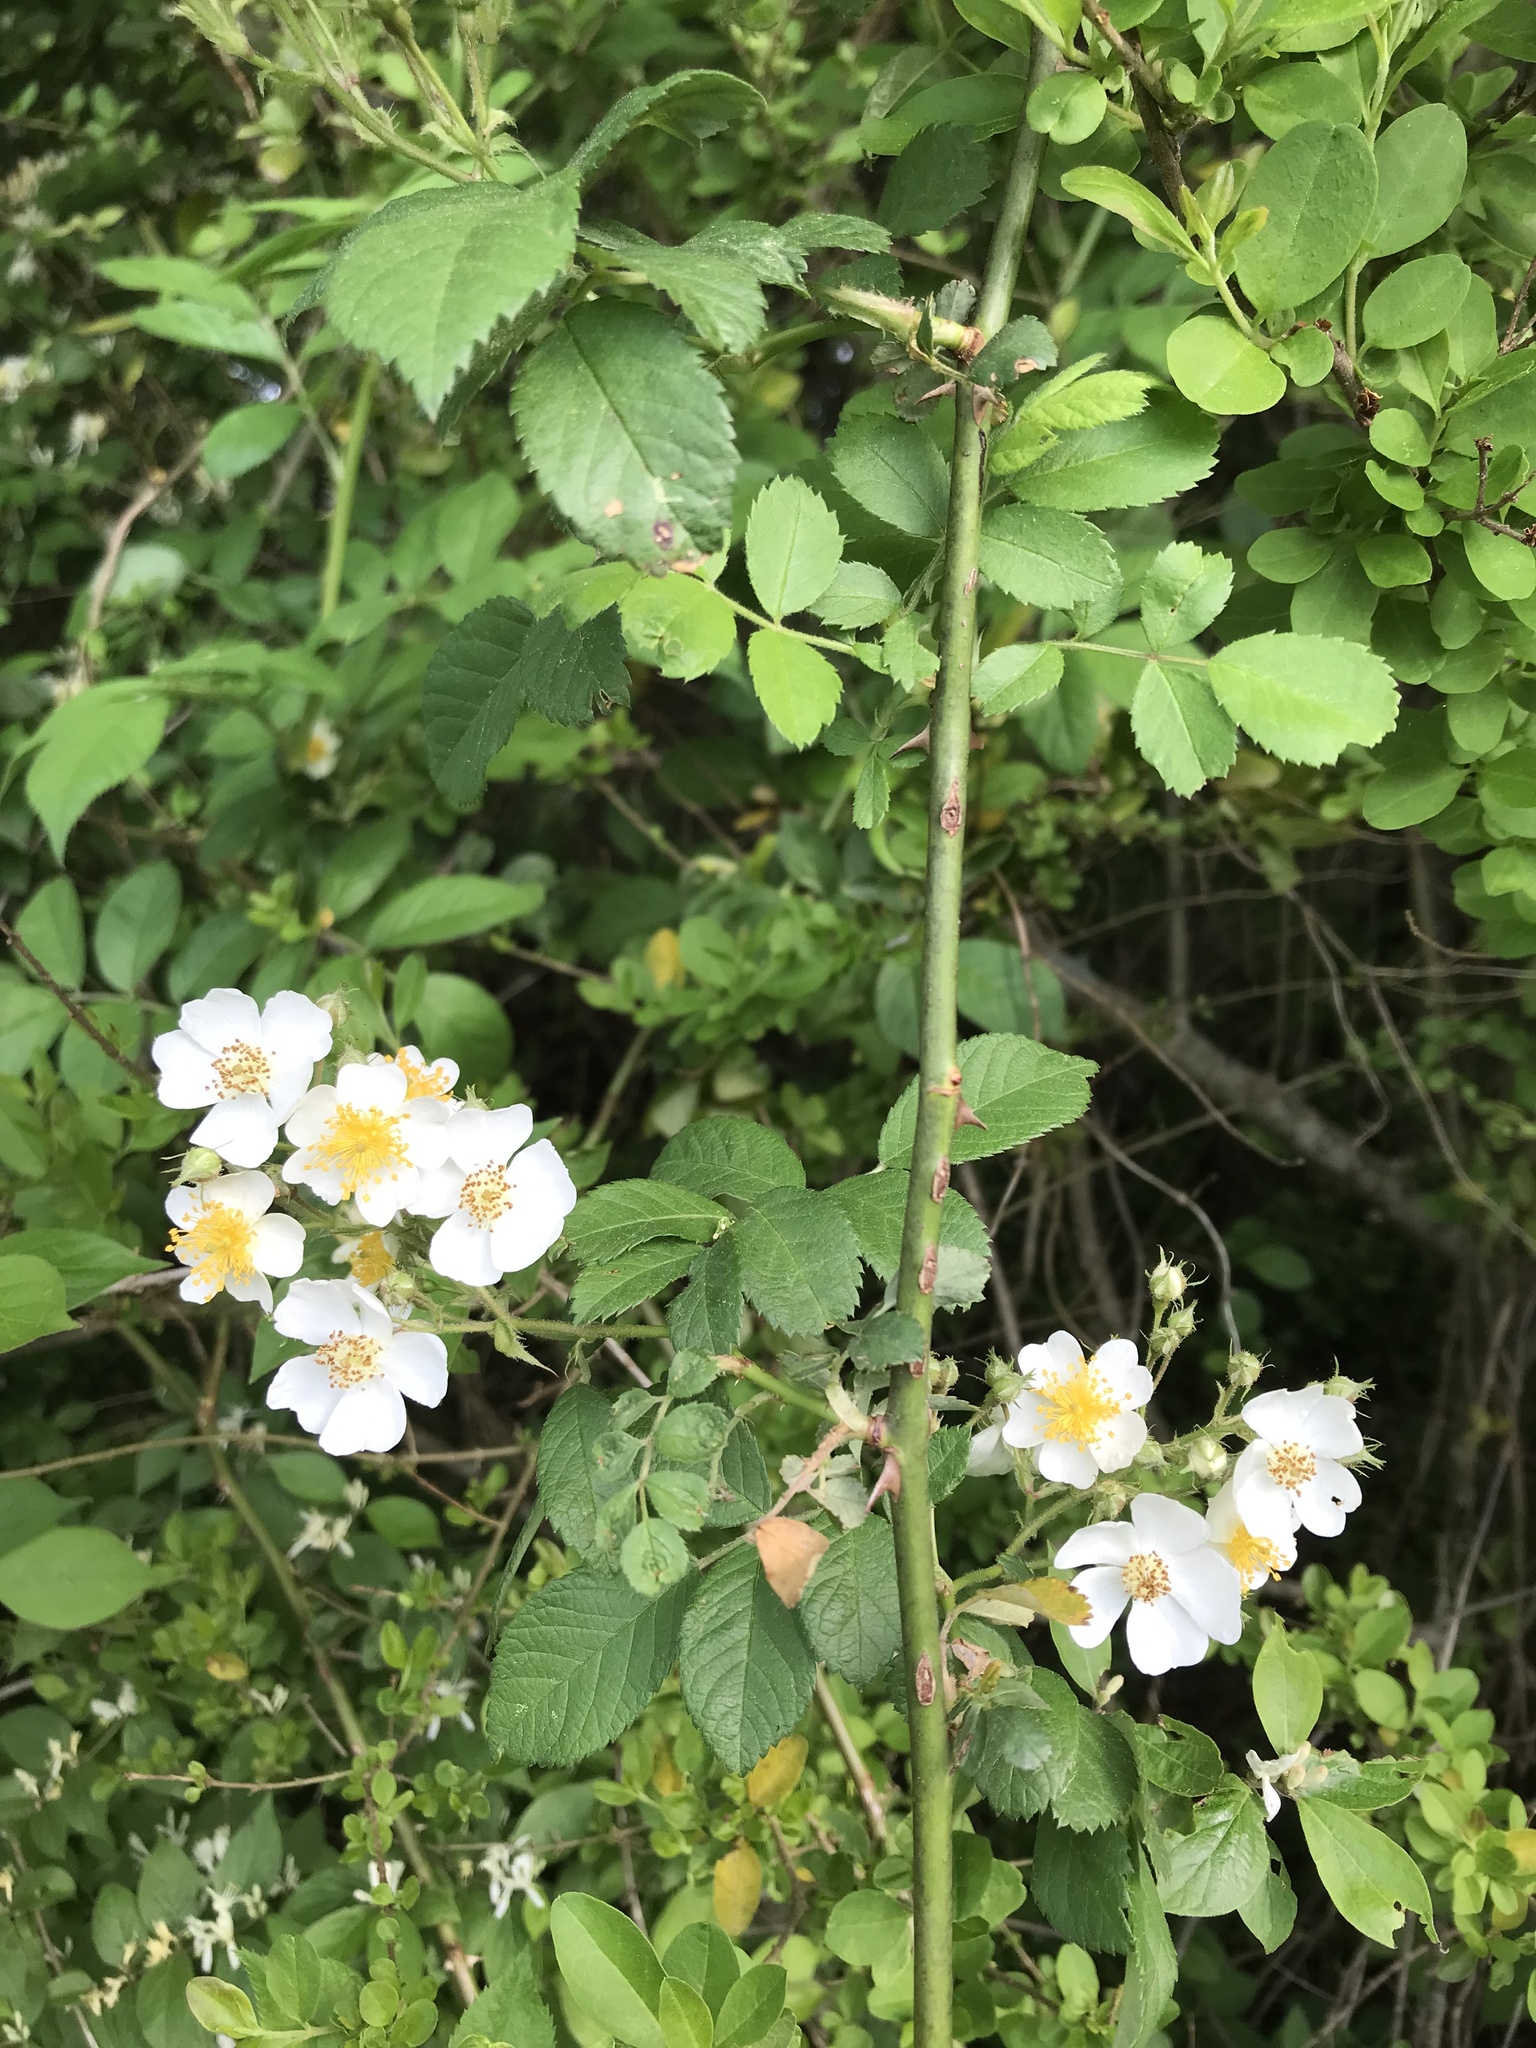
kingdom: Plantae
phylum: Tracheophyta
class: Magnoliopsida
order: Rosales
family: Rosaceae
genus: Rosa
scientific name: Rosa multiflora
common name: Multiflora rose
